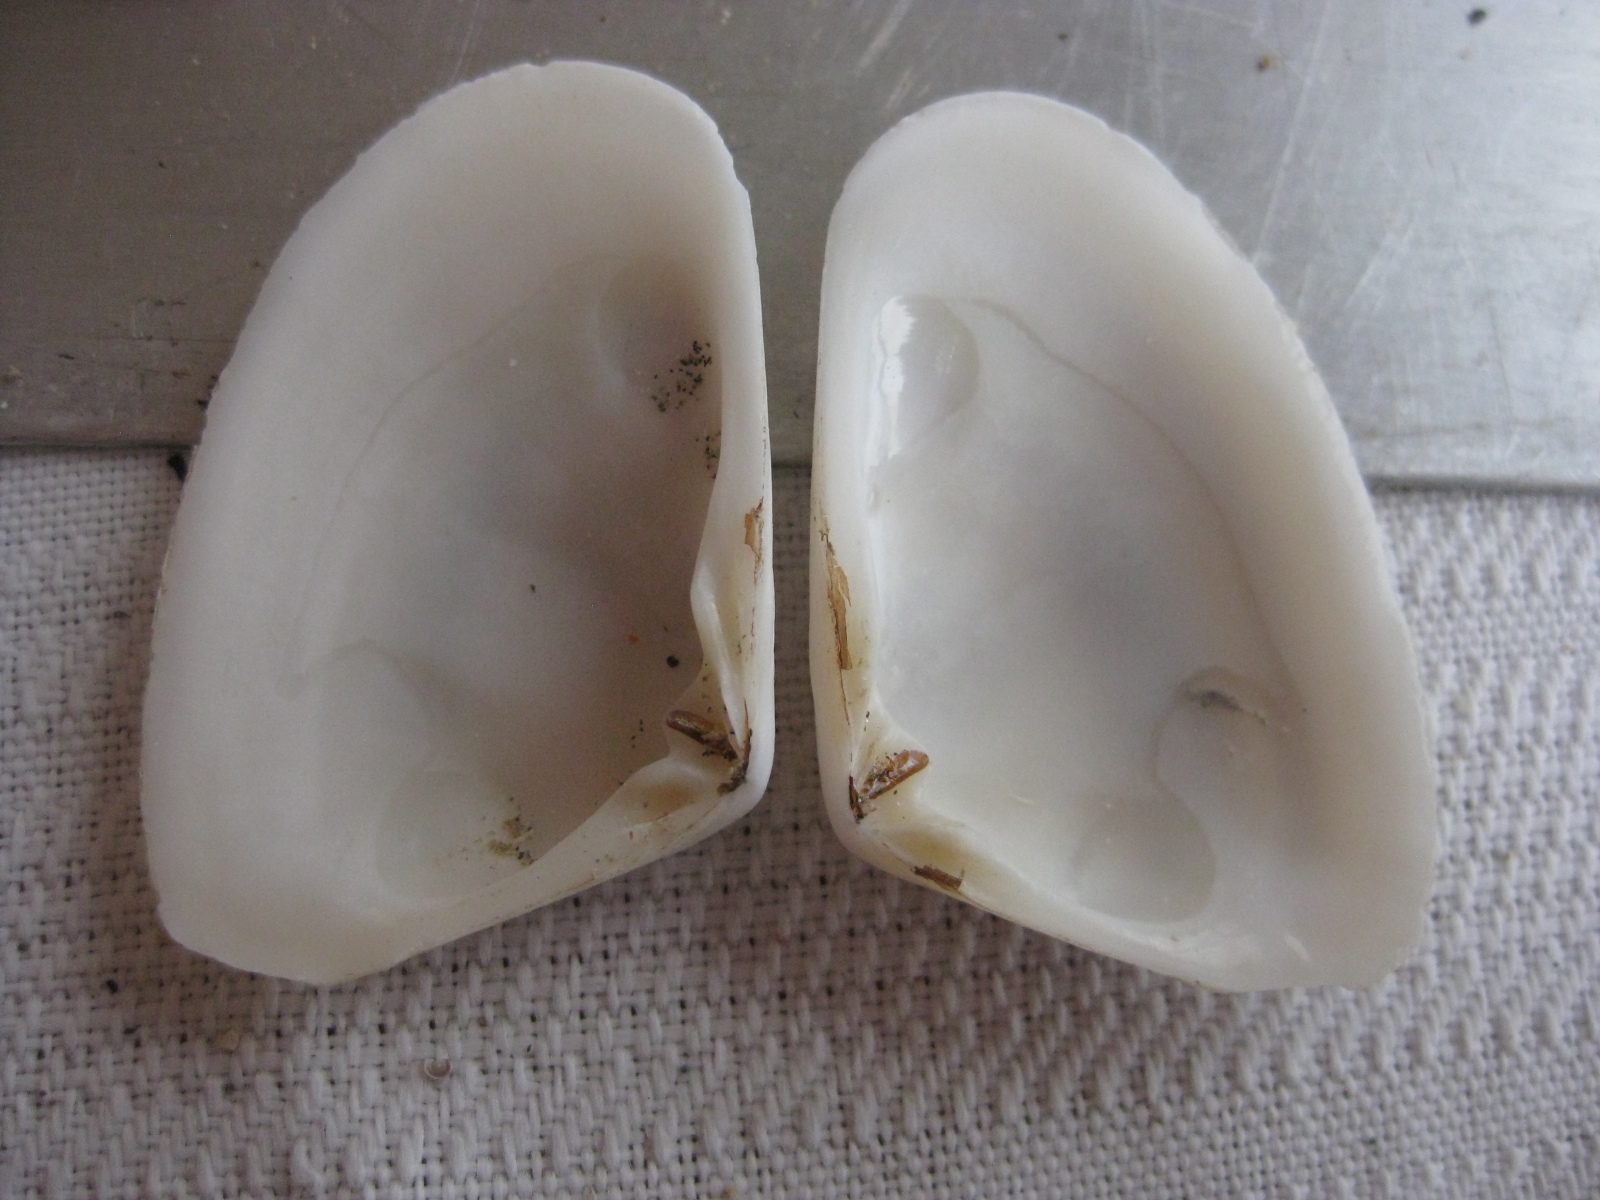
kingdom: Animalia
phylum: Mollusca
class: Bivalvia
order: Venerida
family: Mesodesmatidae
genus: Paphies
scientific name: Paphies subtriangulata
